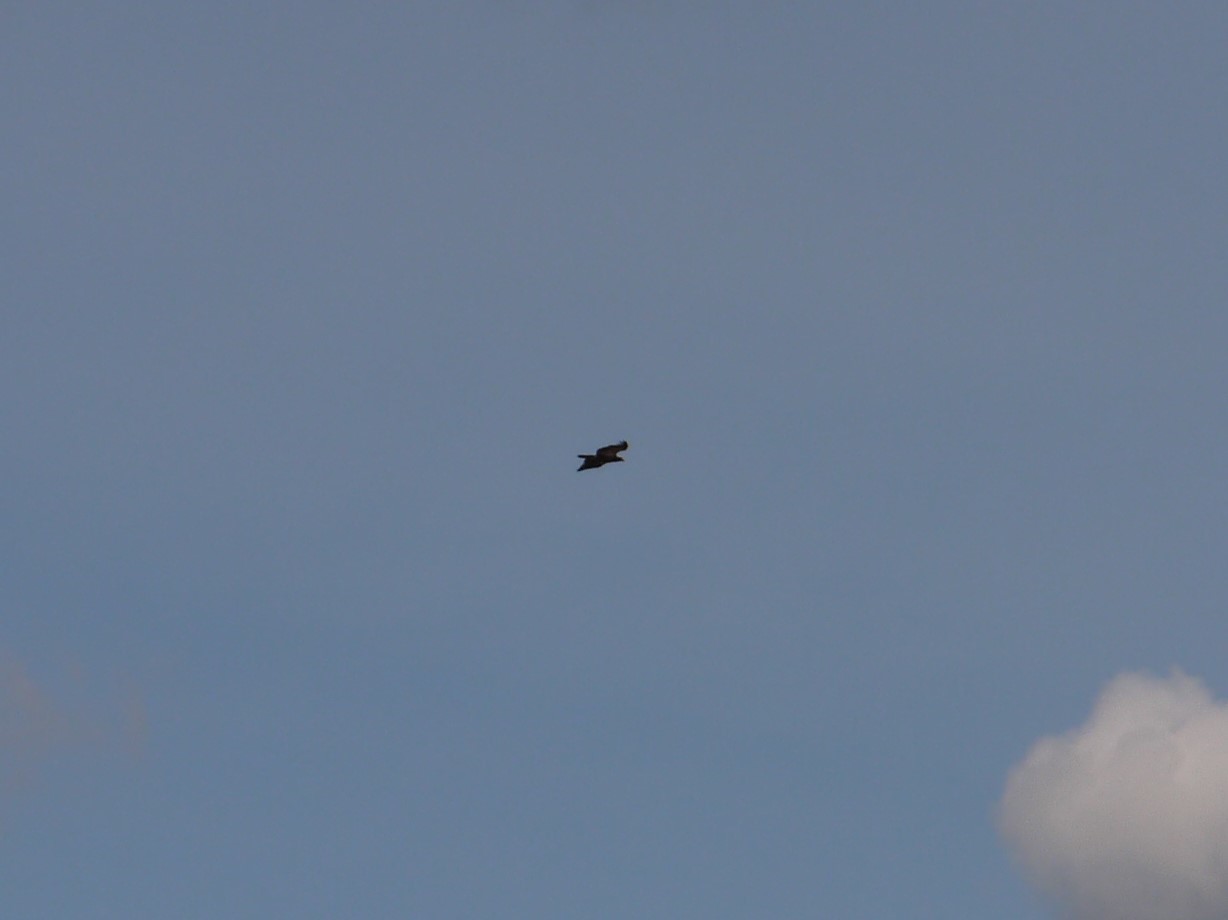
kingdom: Animalia
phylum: Chordata
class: Aves
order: Accipitriformes
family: Accipitridae
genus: Haliaeetus
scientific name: Haliaeetus leucocephalus
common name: Bald eagle
